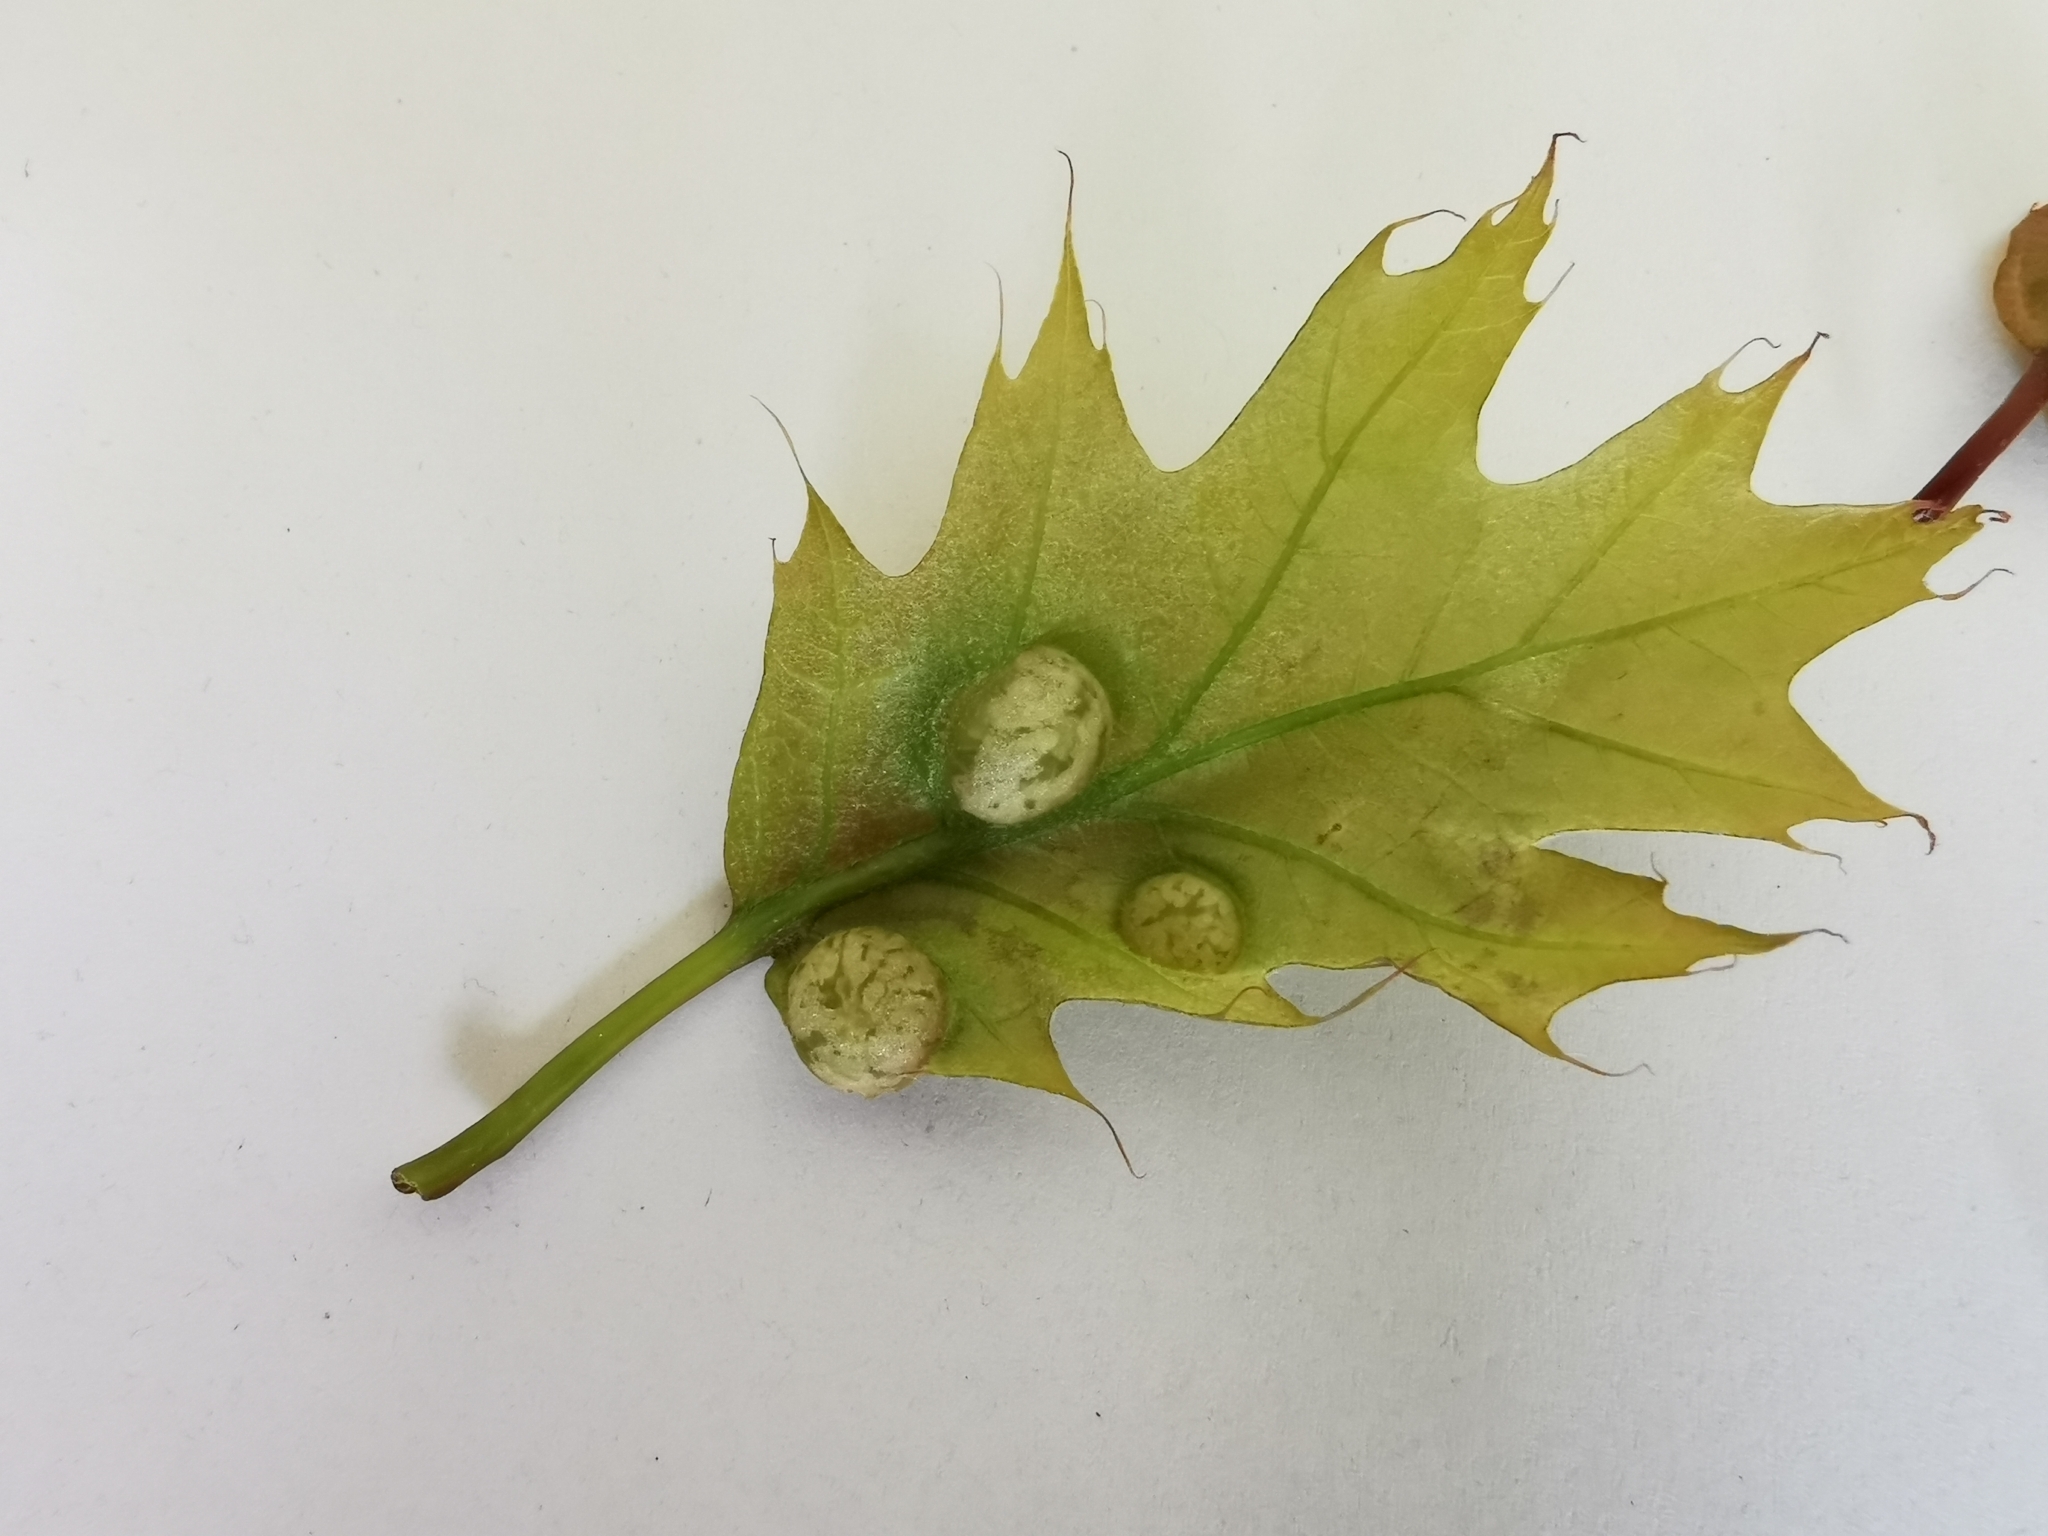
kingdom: Animalia
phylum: Arthropoda
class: Insecta
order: Hymenoptera
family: Cynipidae
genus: Dryocosmus
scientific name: Dryocosmus quercuspalustris
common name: Succulent oak gall wasp
